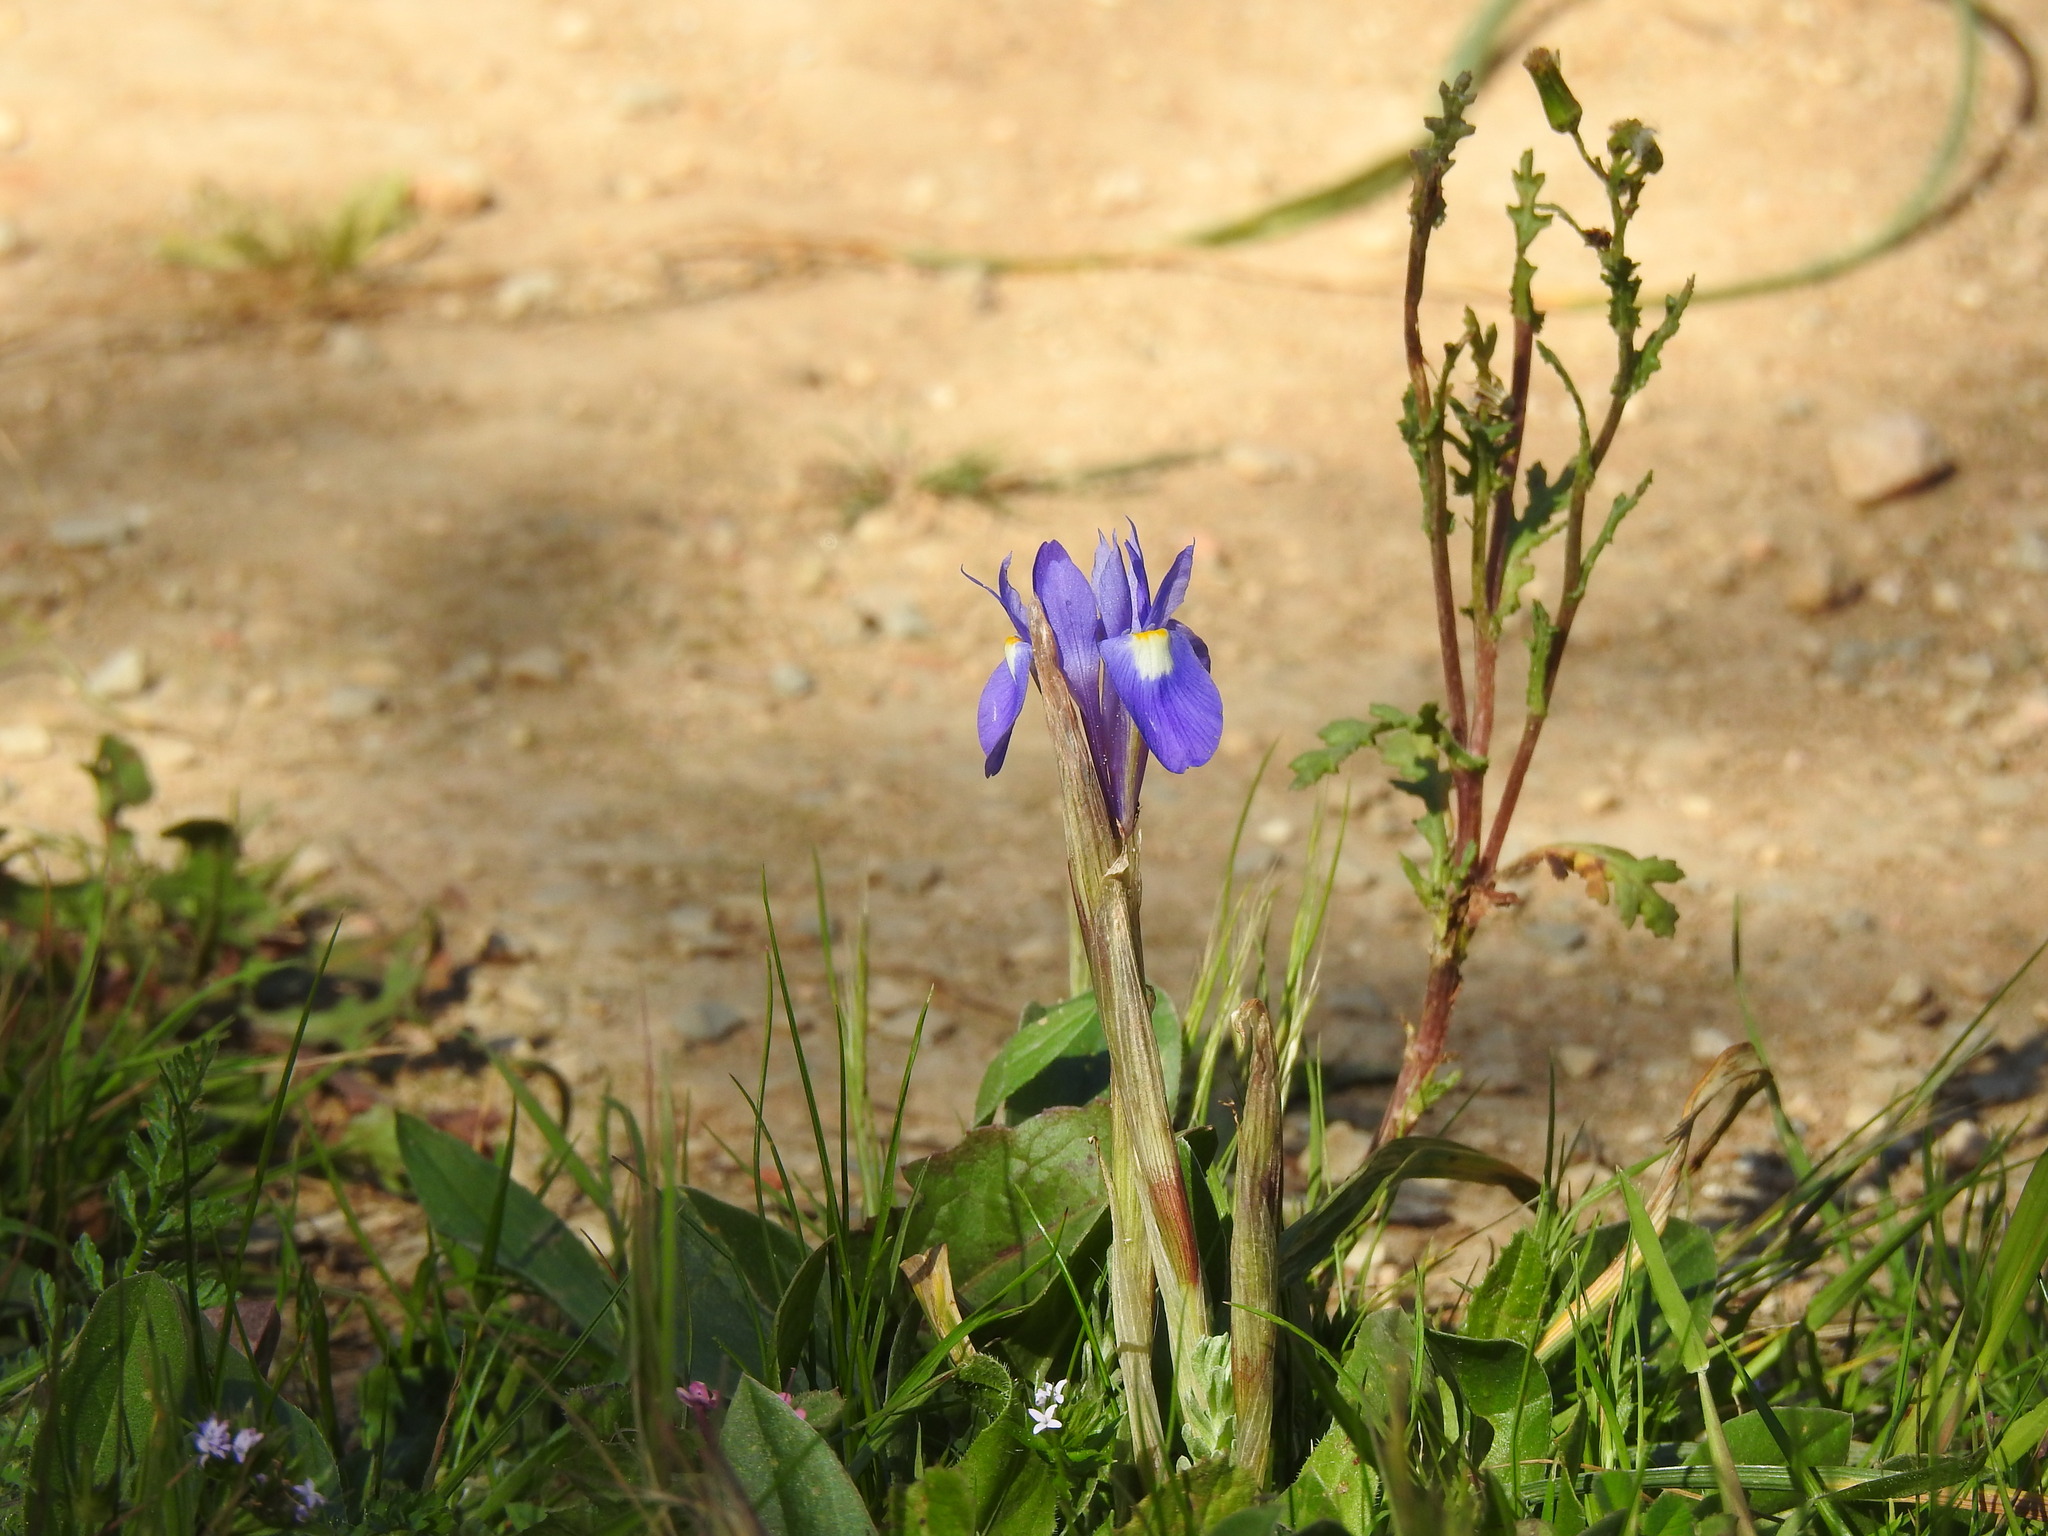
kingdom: Plantae
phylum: Tracheophyta
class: Liliopsida
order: Asparagales
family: Iridaceae
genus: Moraea
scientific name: Moraea sisyrinchium
